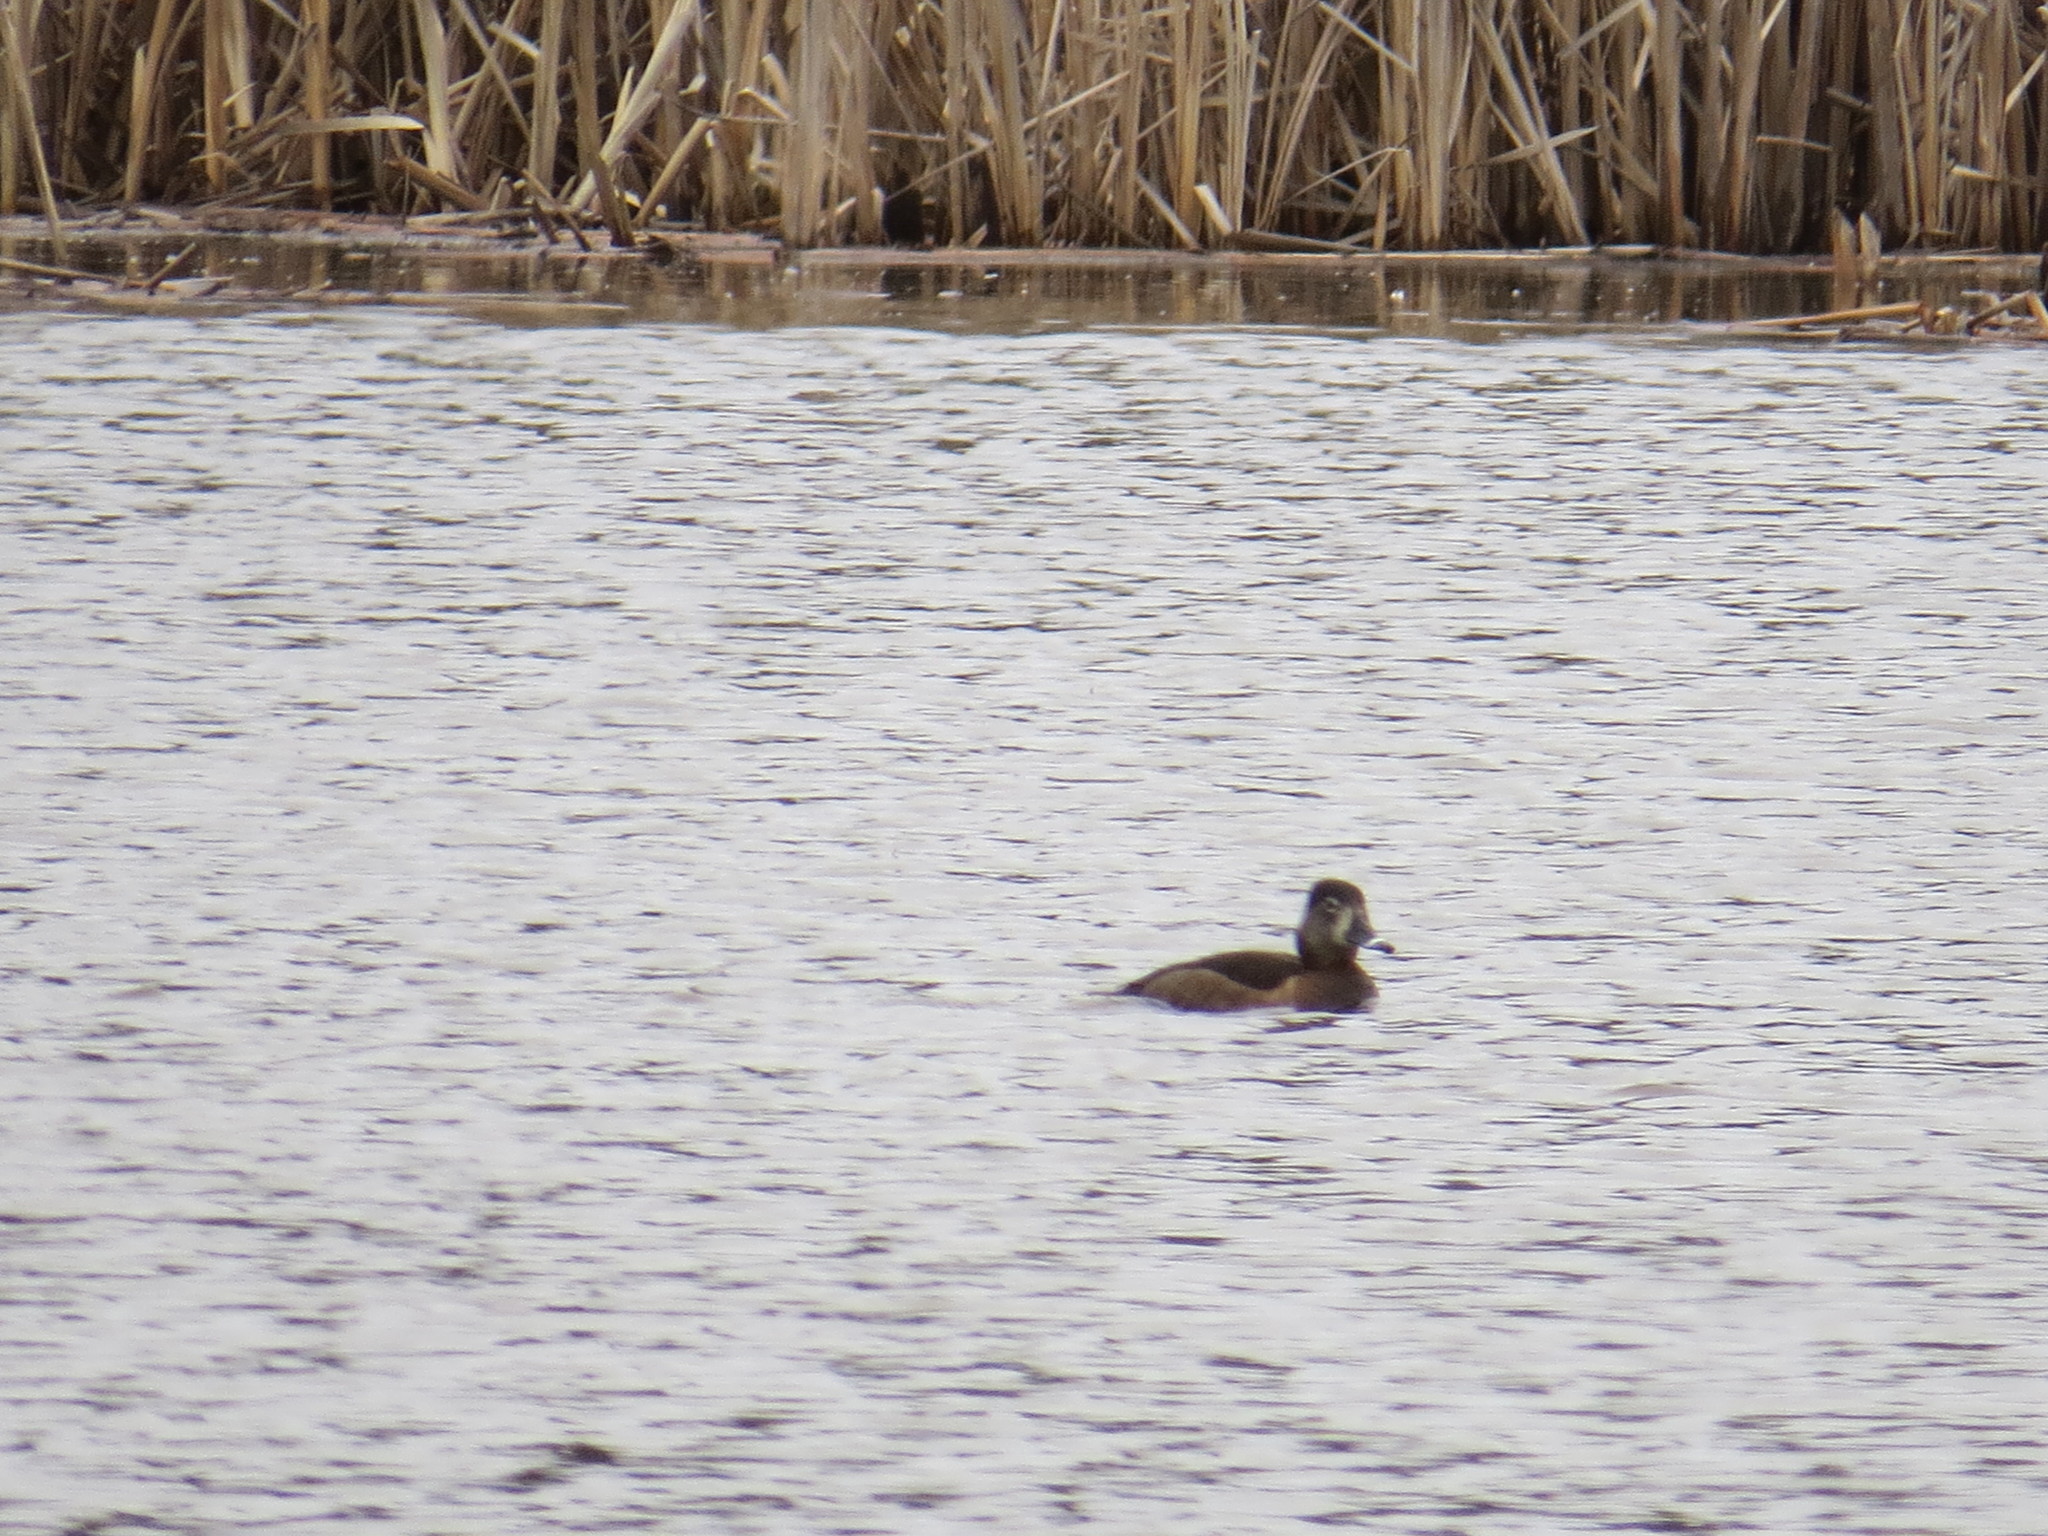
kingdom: Animalia
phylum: Chordata
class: Aves
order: Anseriformes
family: Anatidae
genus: Aythya
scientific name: Aythya collaris
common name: Ring-necked duck
